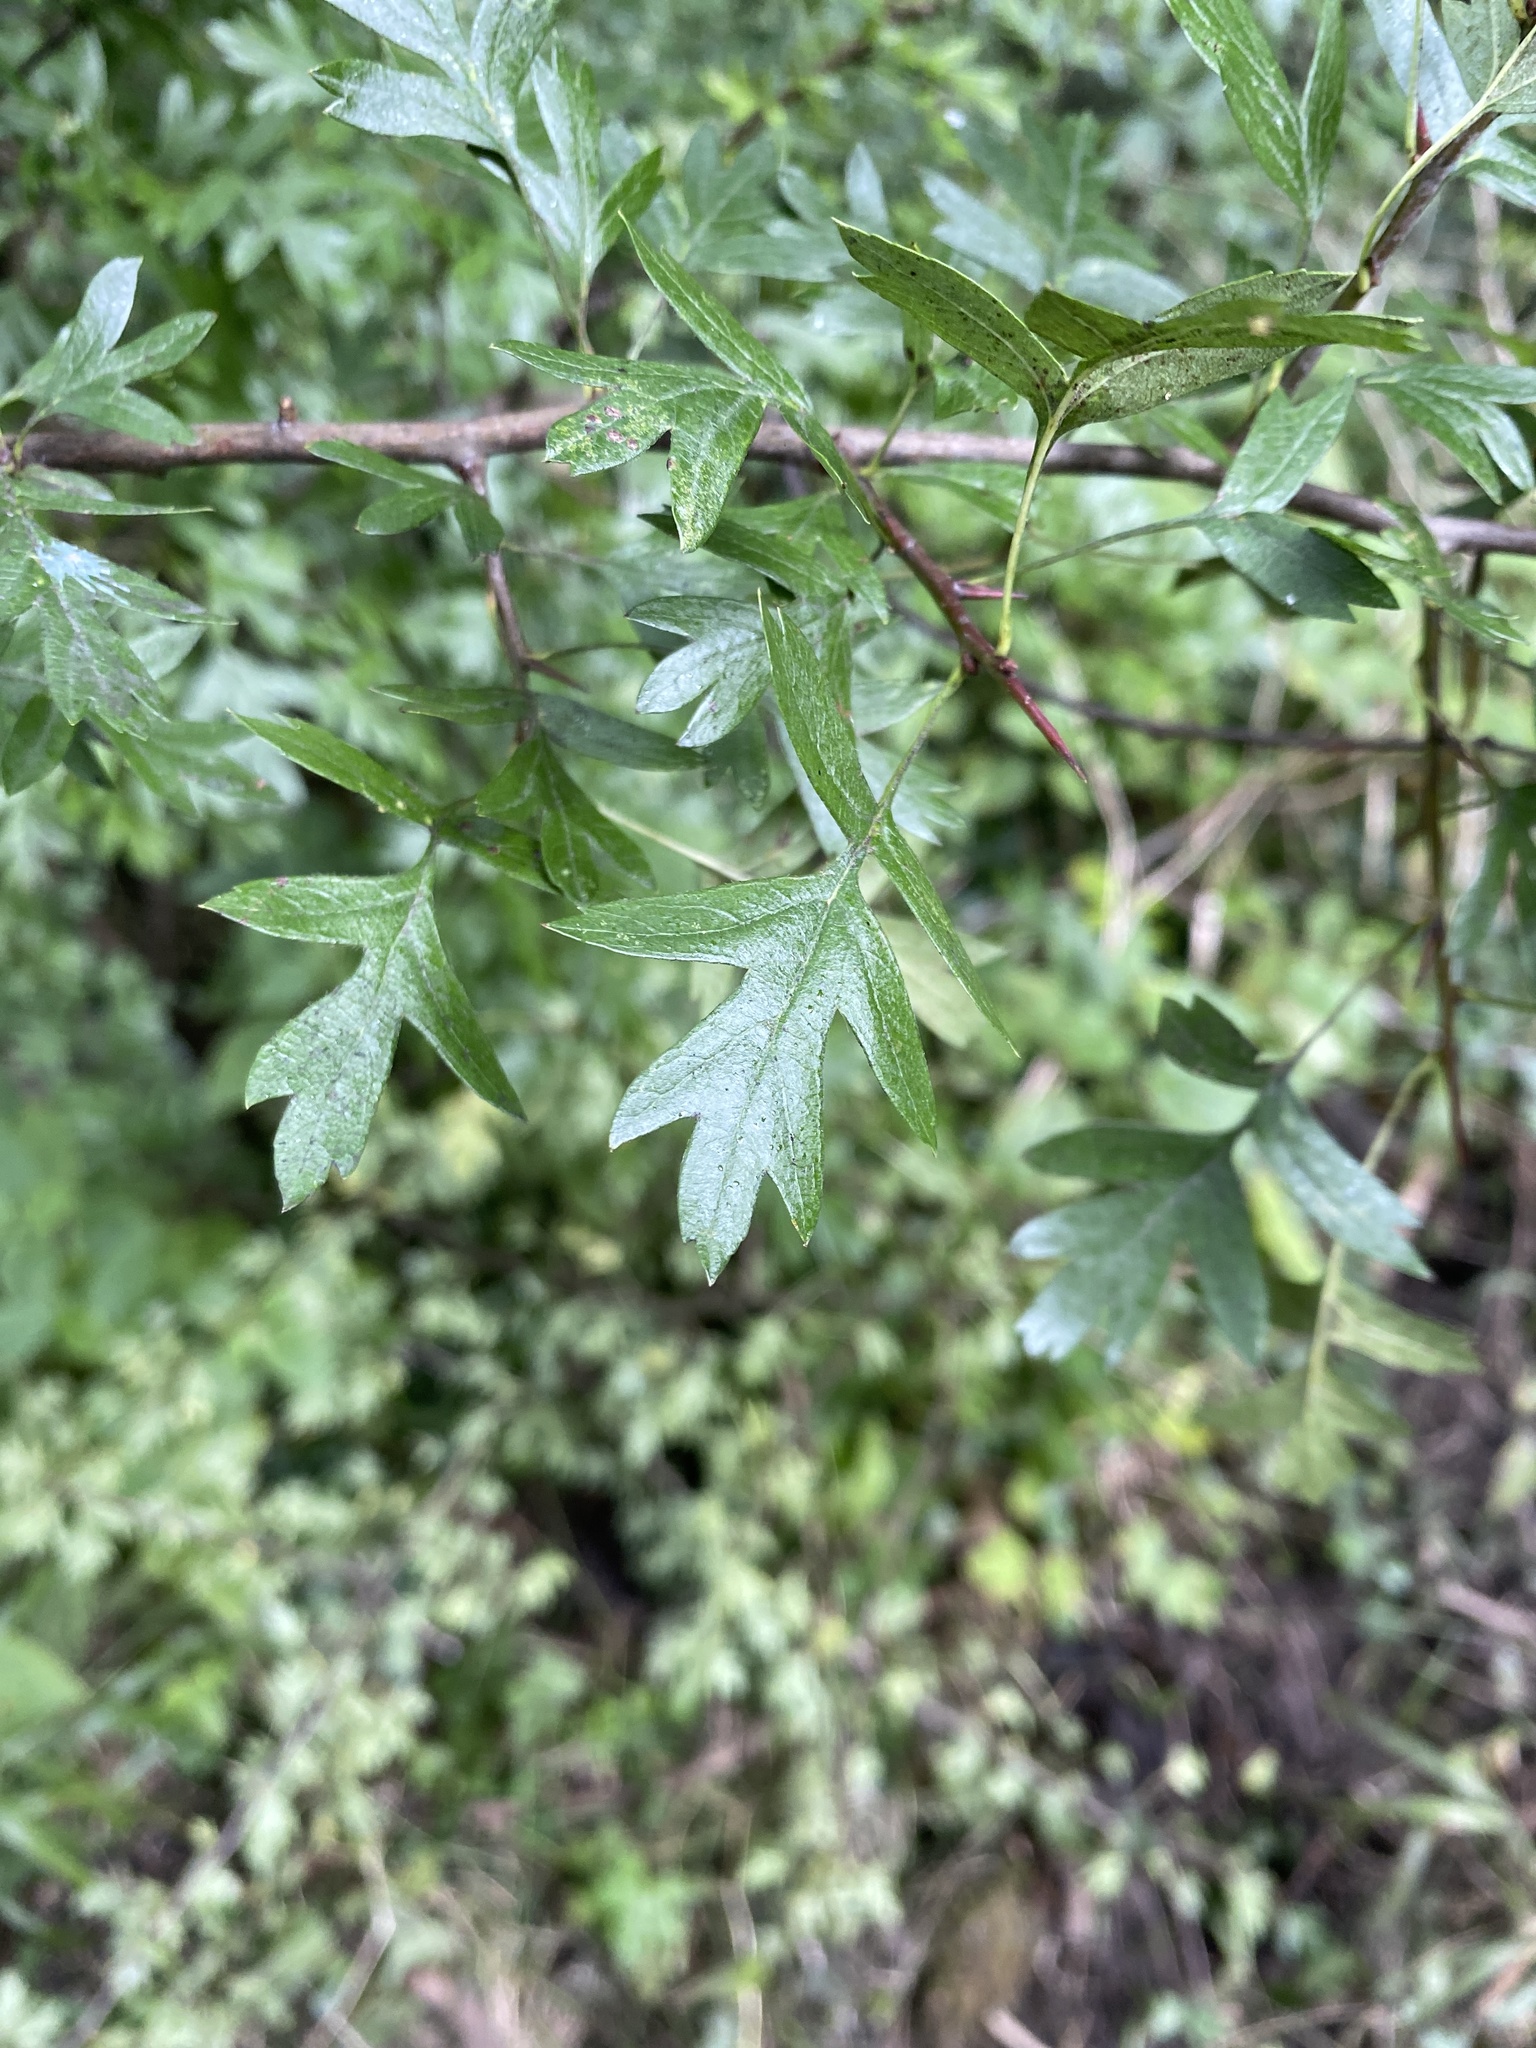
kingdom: Plantae
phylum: Tracheophyta
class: Magnoliopsida
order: Rosales
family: Rosaceae
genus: Crataegus
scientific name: Crataegus monogyna
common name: Hawthorn
